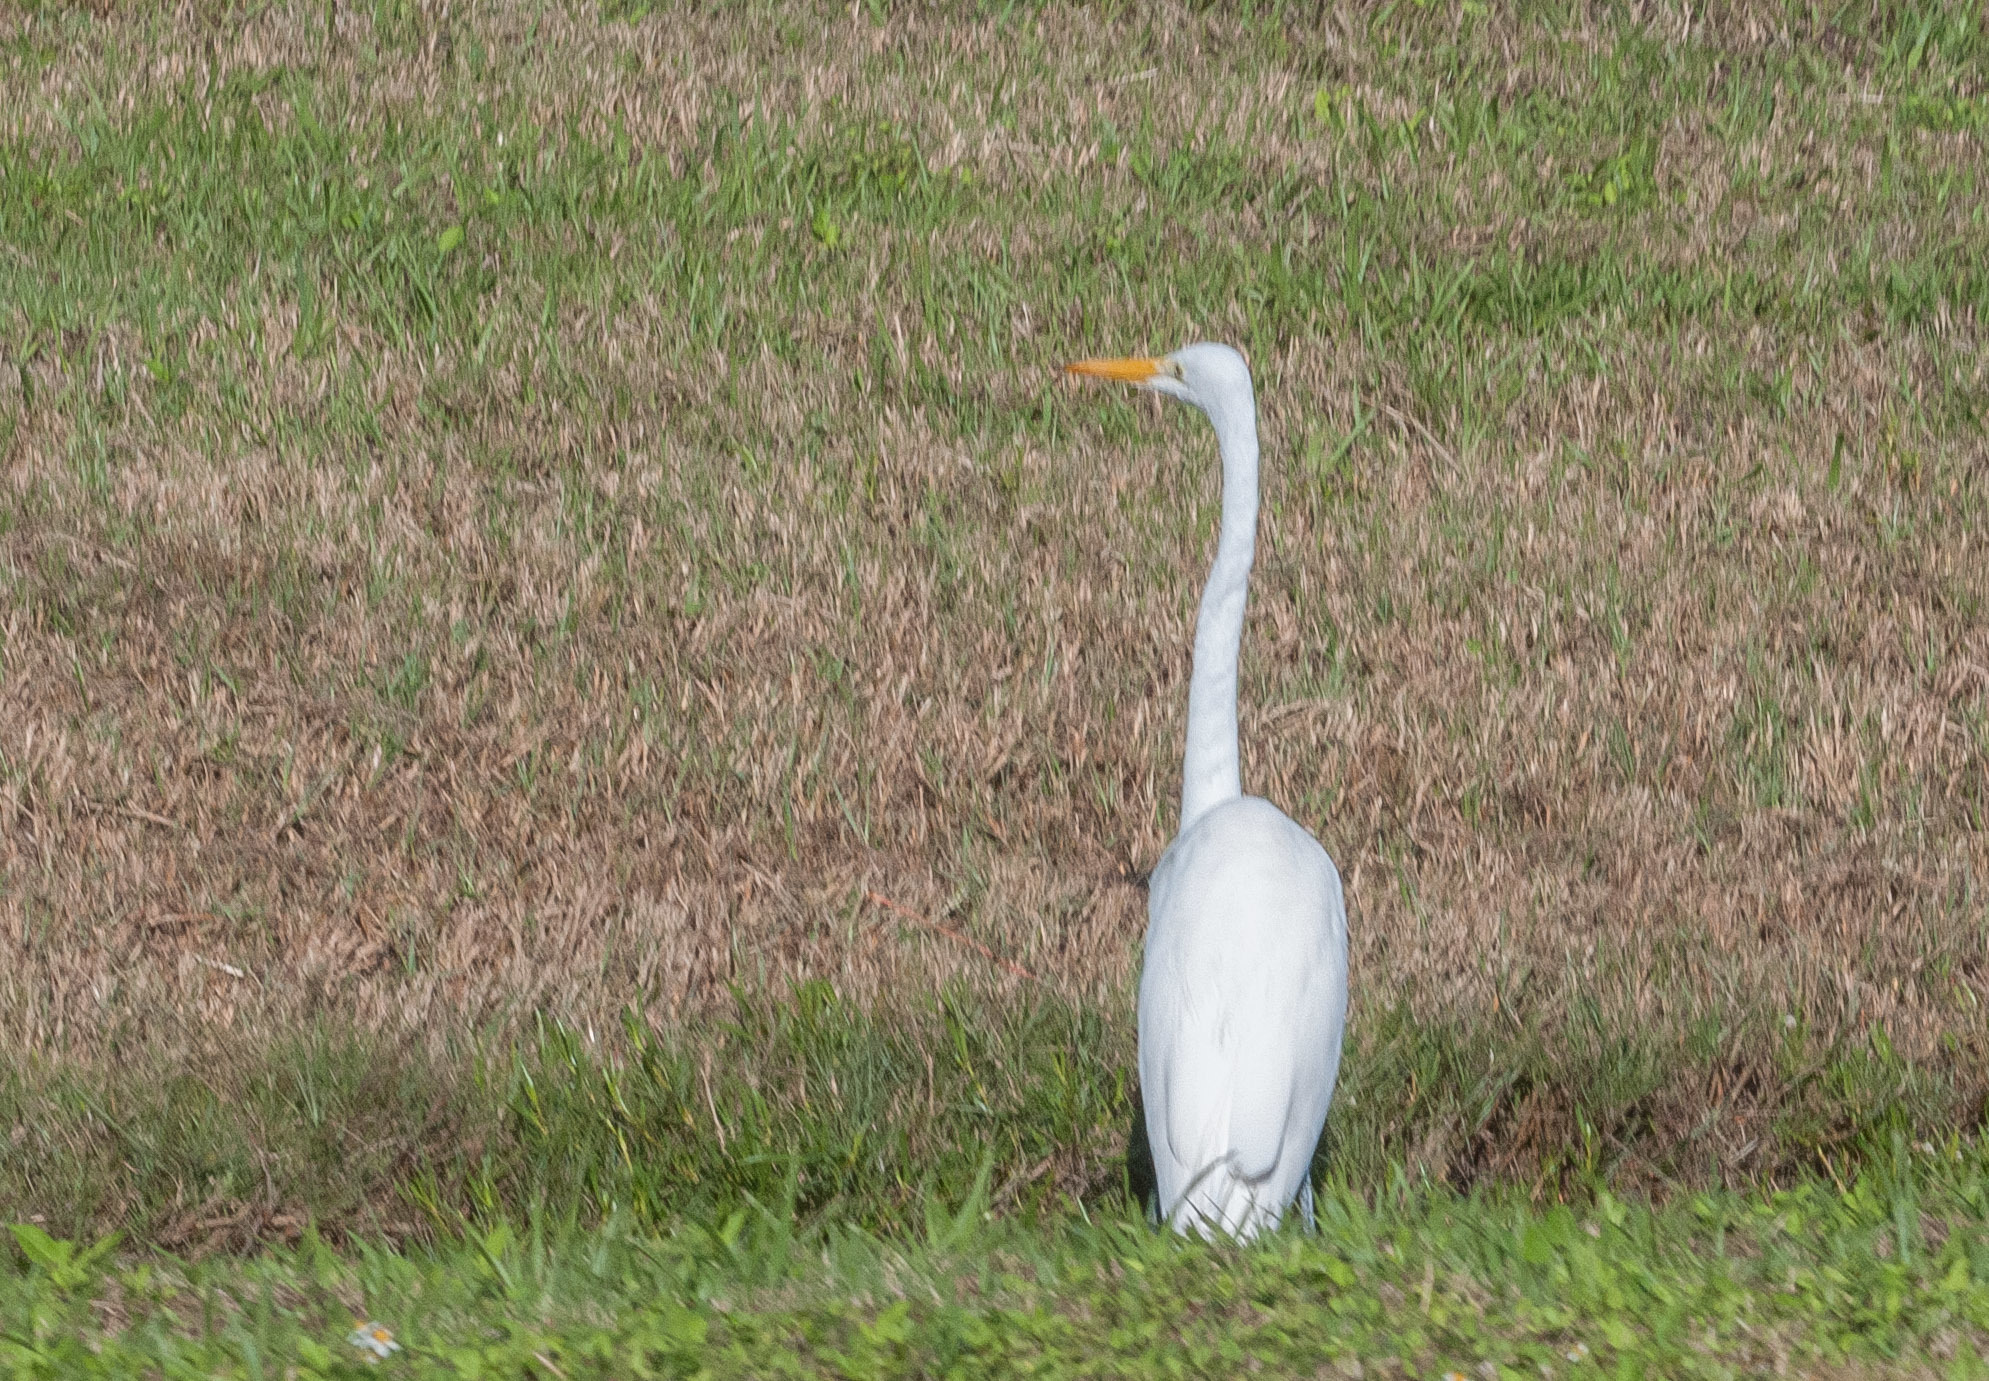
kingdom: Animalia
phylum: Chordata
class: Aves
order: Pelecaniformes
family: Ardeidae
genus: Ardea
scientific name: Ardea alba
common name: Great egret
